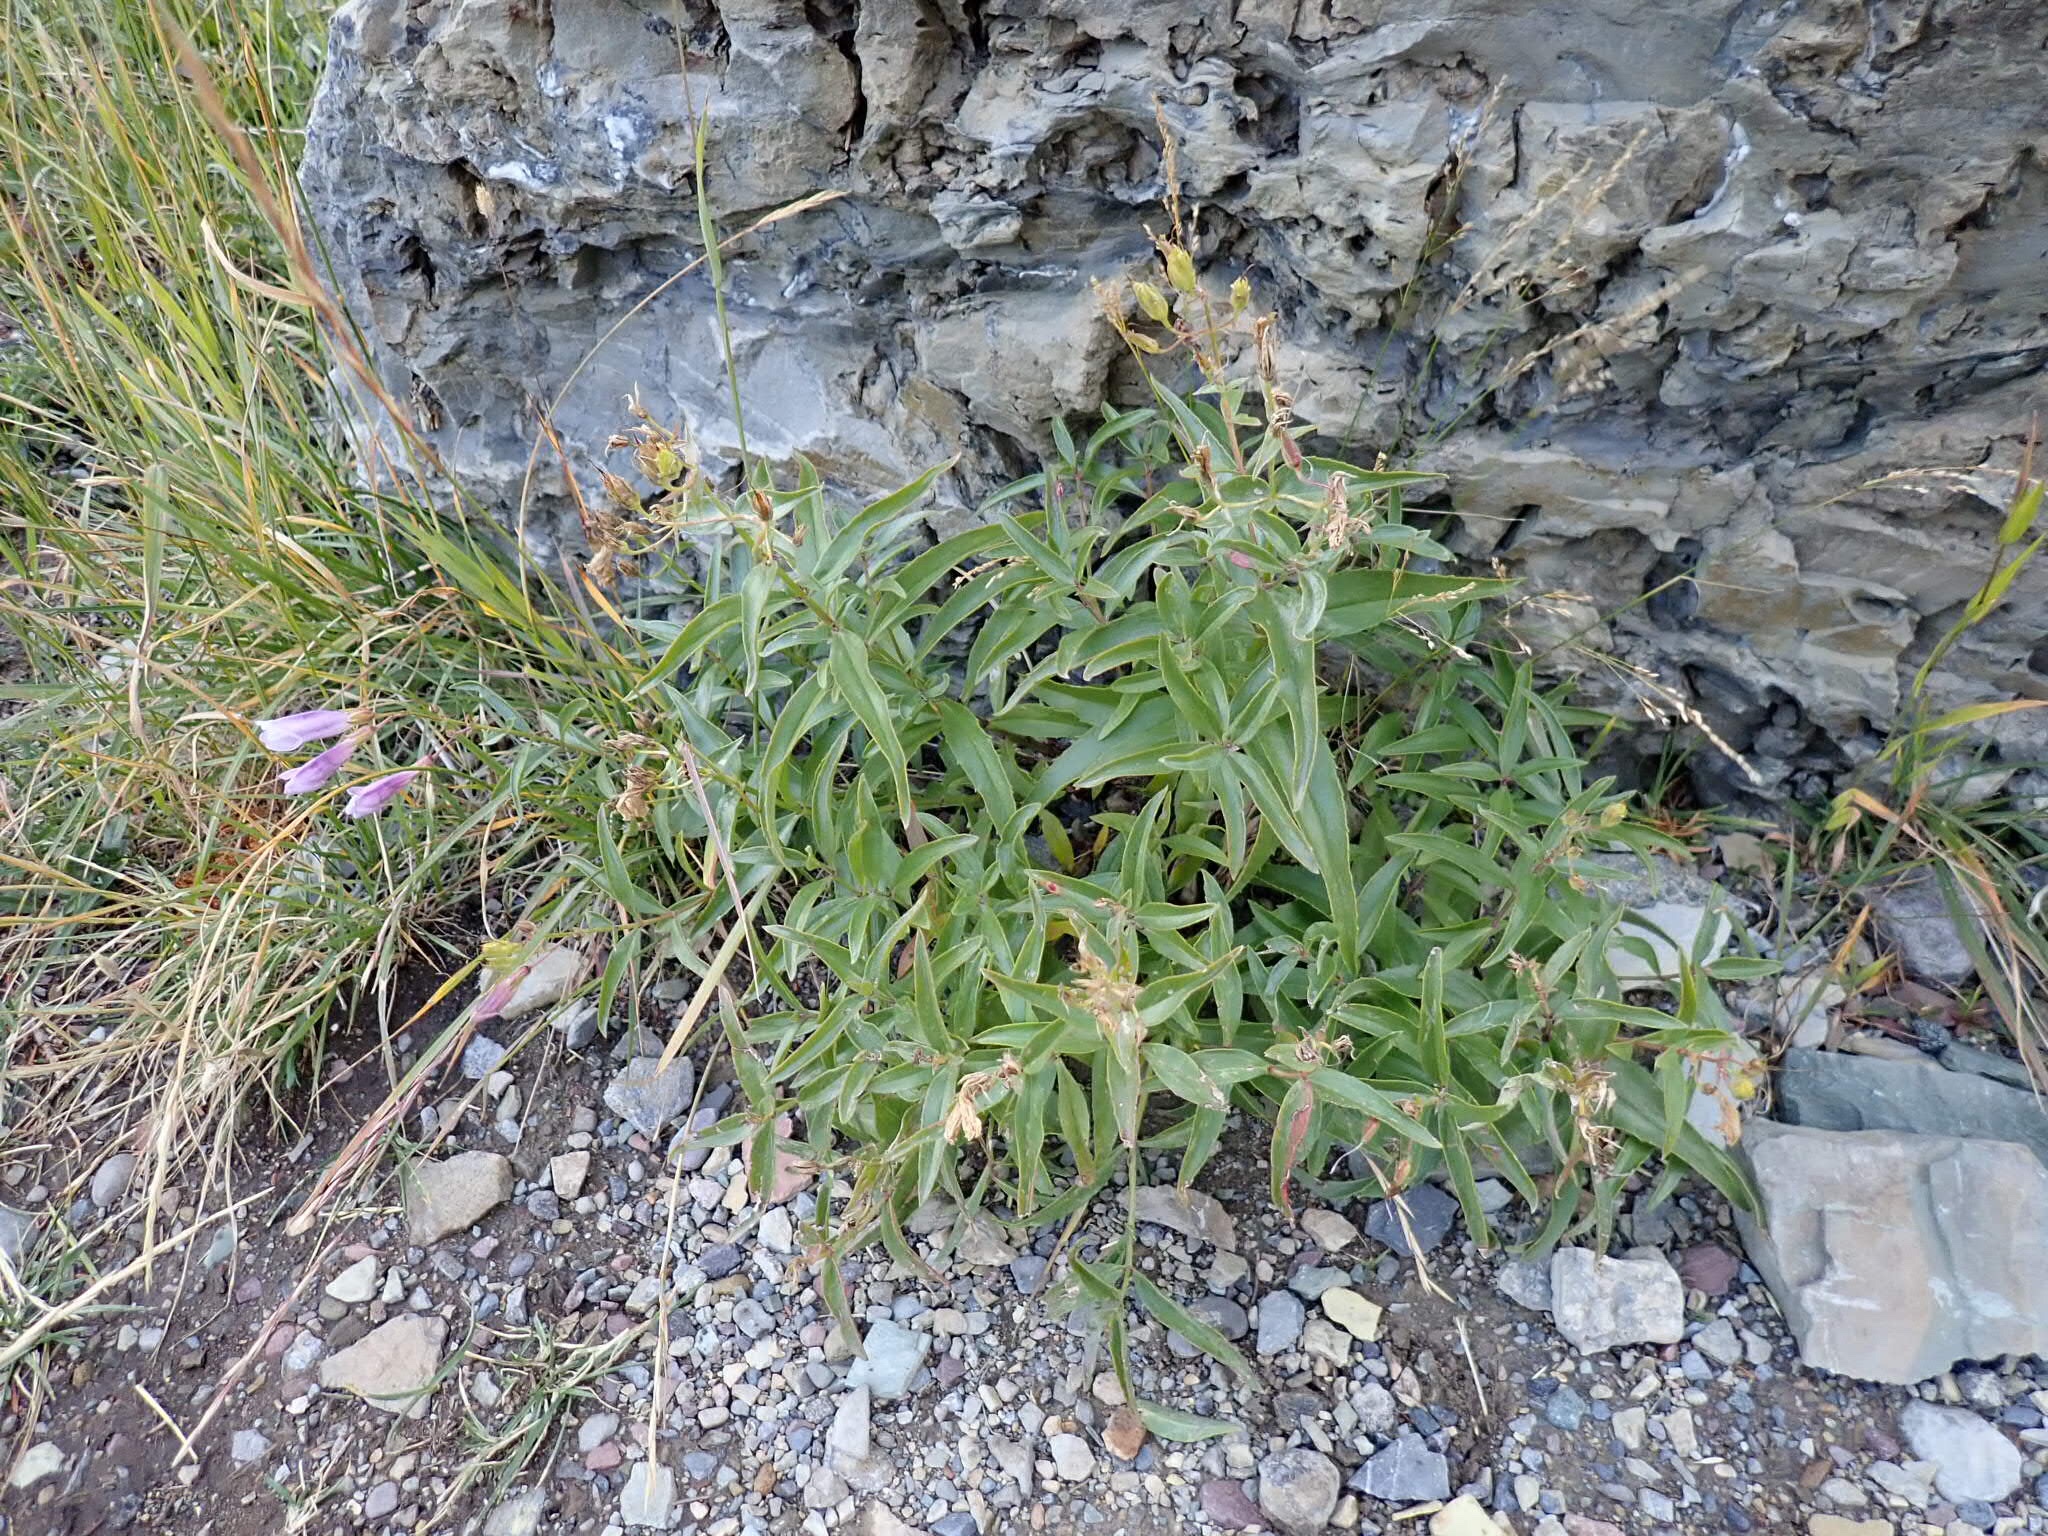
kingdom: Plantae
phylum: Tracheophyta
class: Magnoliopsida
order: Lamiales
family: Plantaginaceae
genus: Penstemon
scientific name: Penstemon lyalli
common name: Lyall's beardtongue
